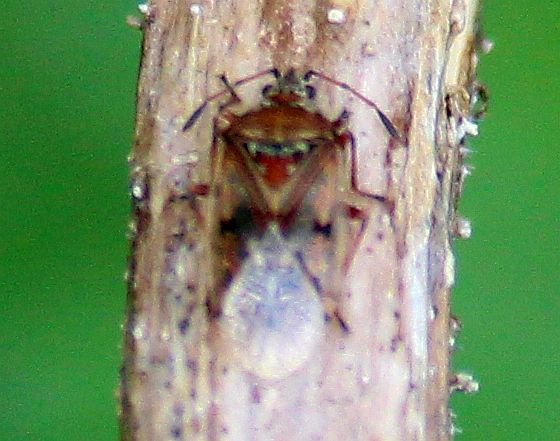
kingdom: Animalia
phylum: Arthropoda
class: Insecta
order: Hemiptera
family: Lygaeidae
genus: Kleidocerys
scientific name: Kleidocerys resedae
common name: Birch catkin bug
